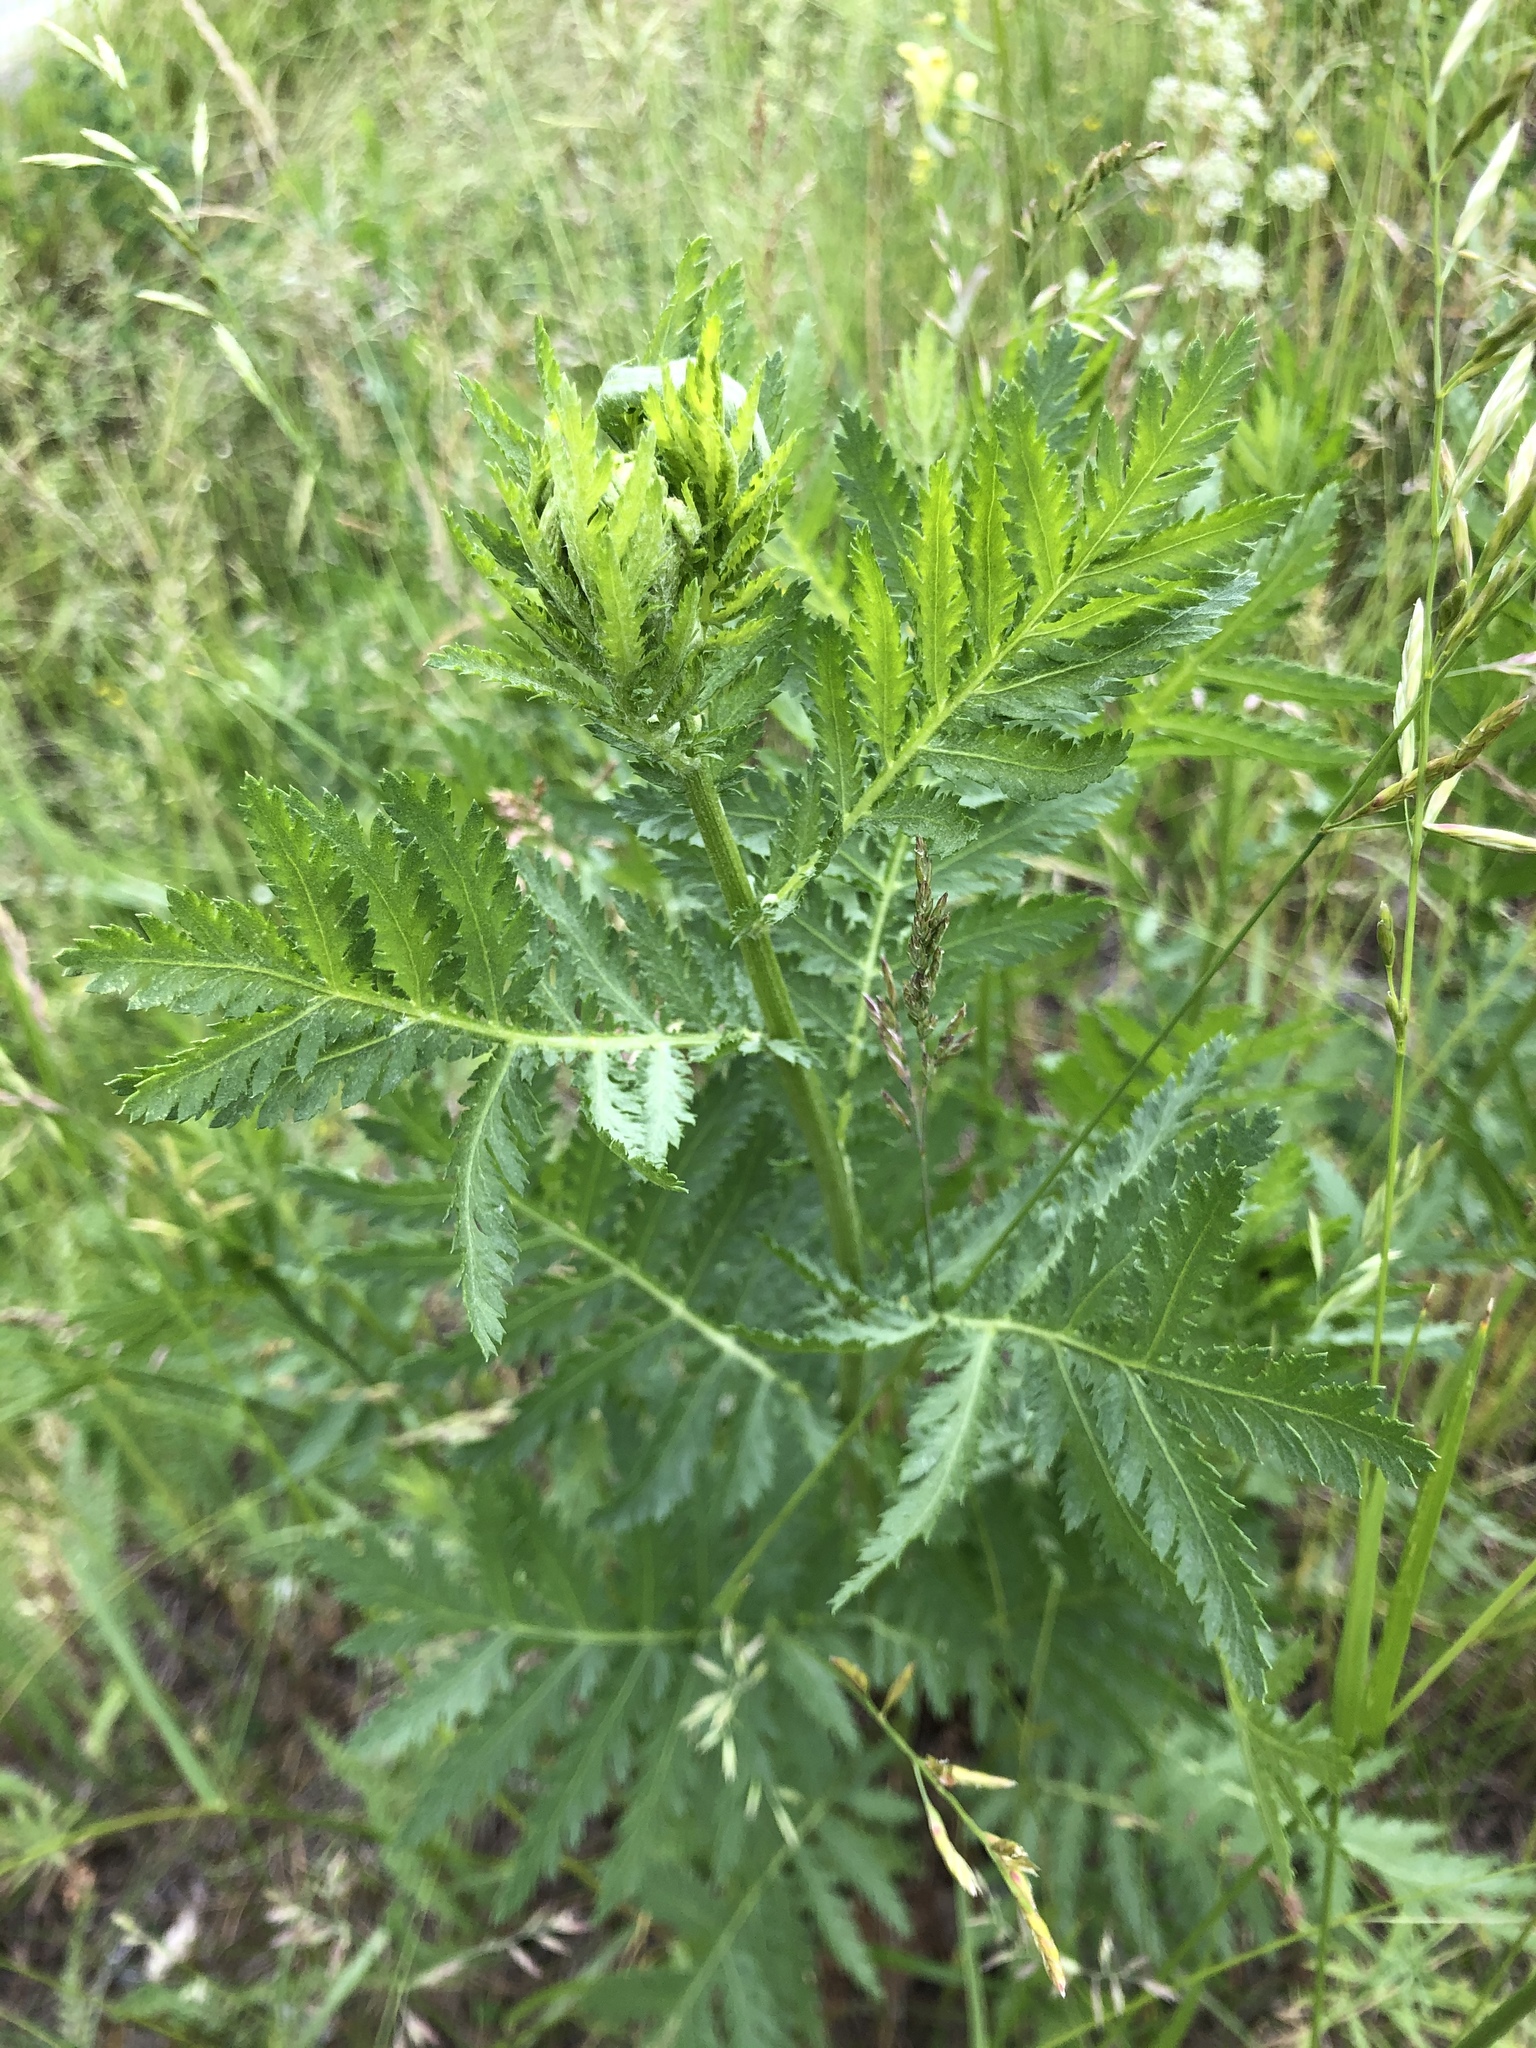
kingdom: Plantae
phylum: Tracheophyta
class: Magnoliopsida
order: Asterales
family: Asteraceae
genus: Tanacetum
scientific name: Tanacetum vulgare
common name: Common tansy
